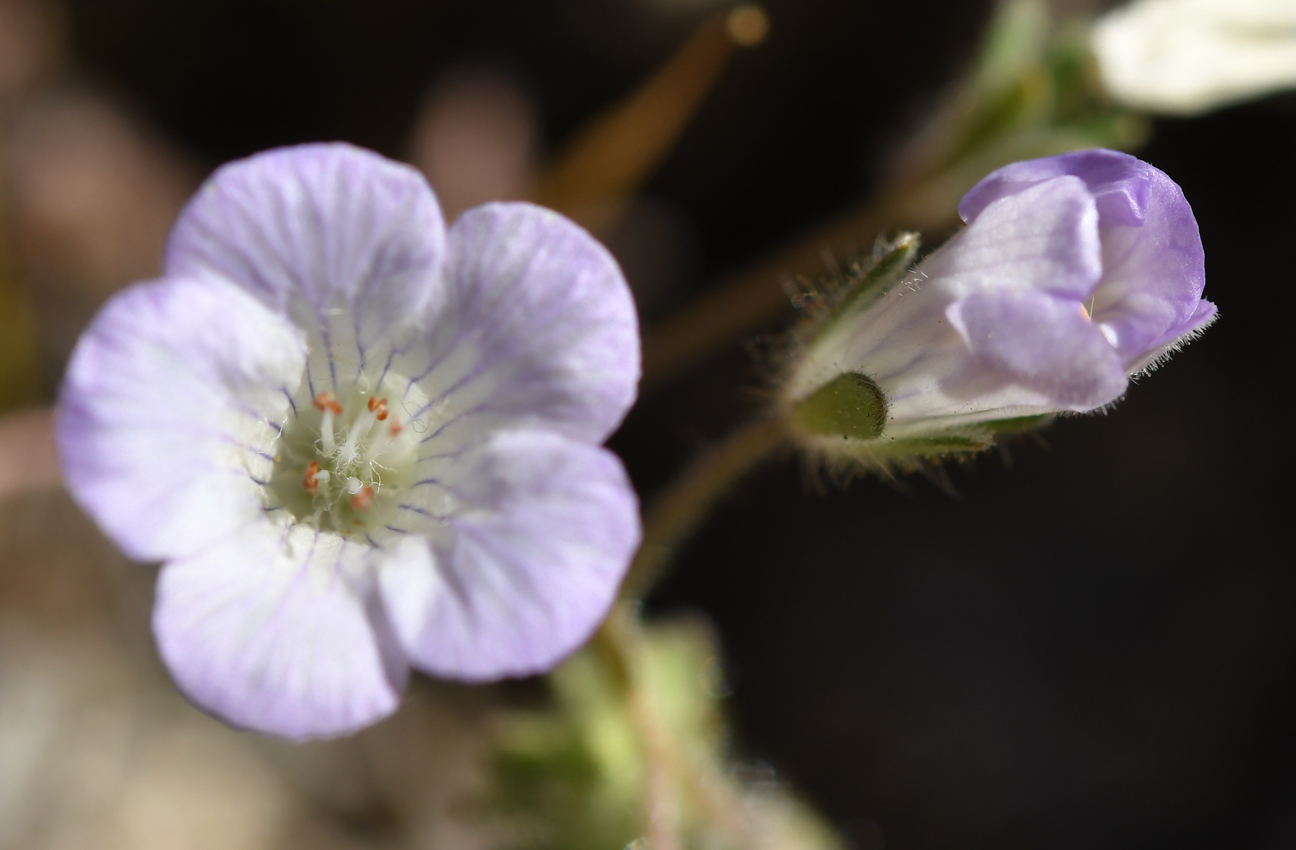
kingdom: Plantae
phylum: Tracheophyta
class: Magnoliopsida
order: Boraginales
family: Hydrophyllaceae
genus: Phacelia
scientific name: Phacelia douglasii
